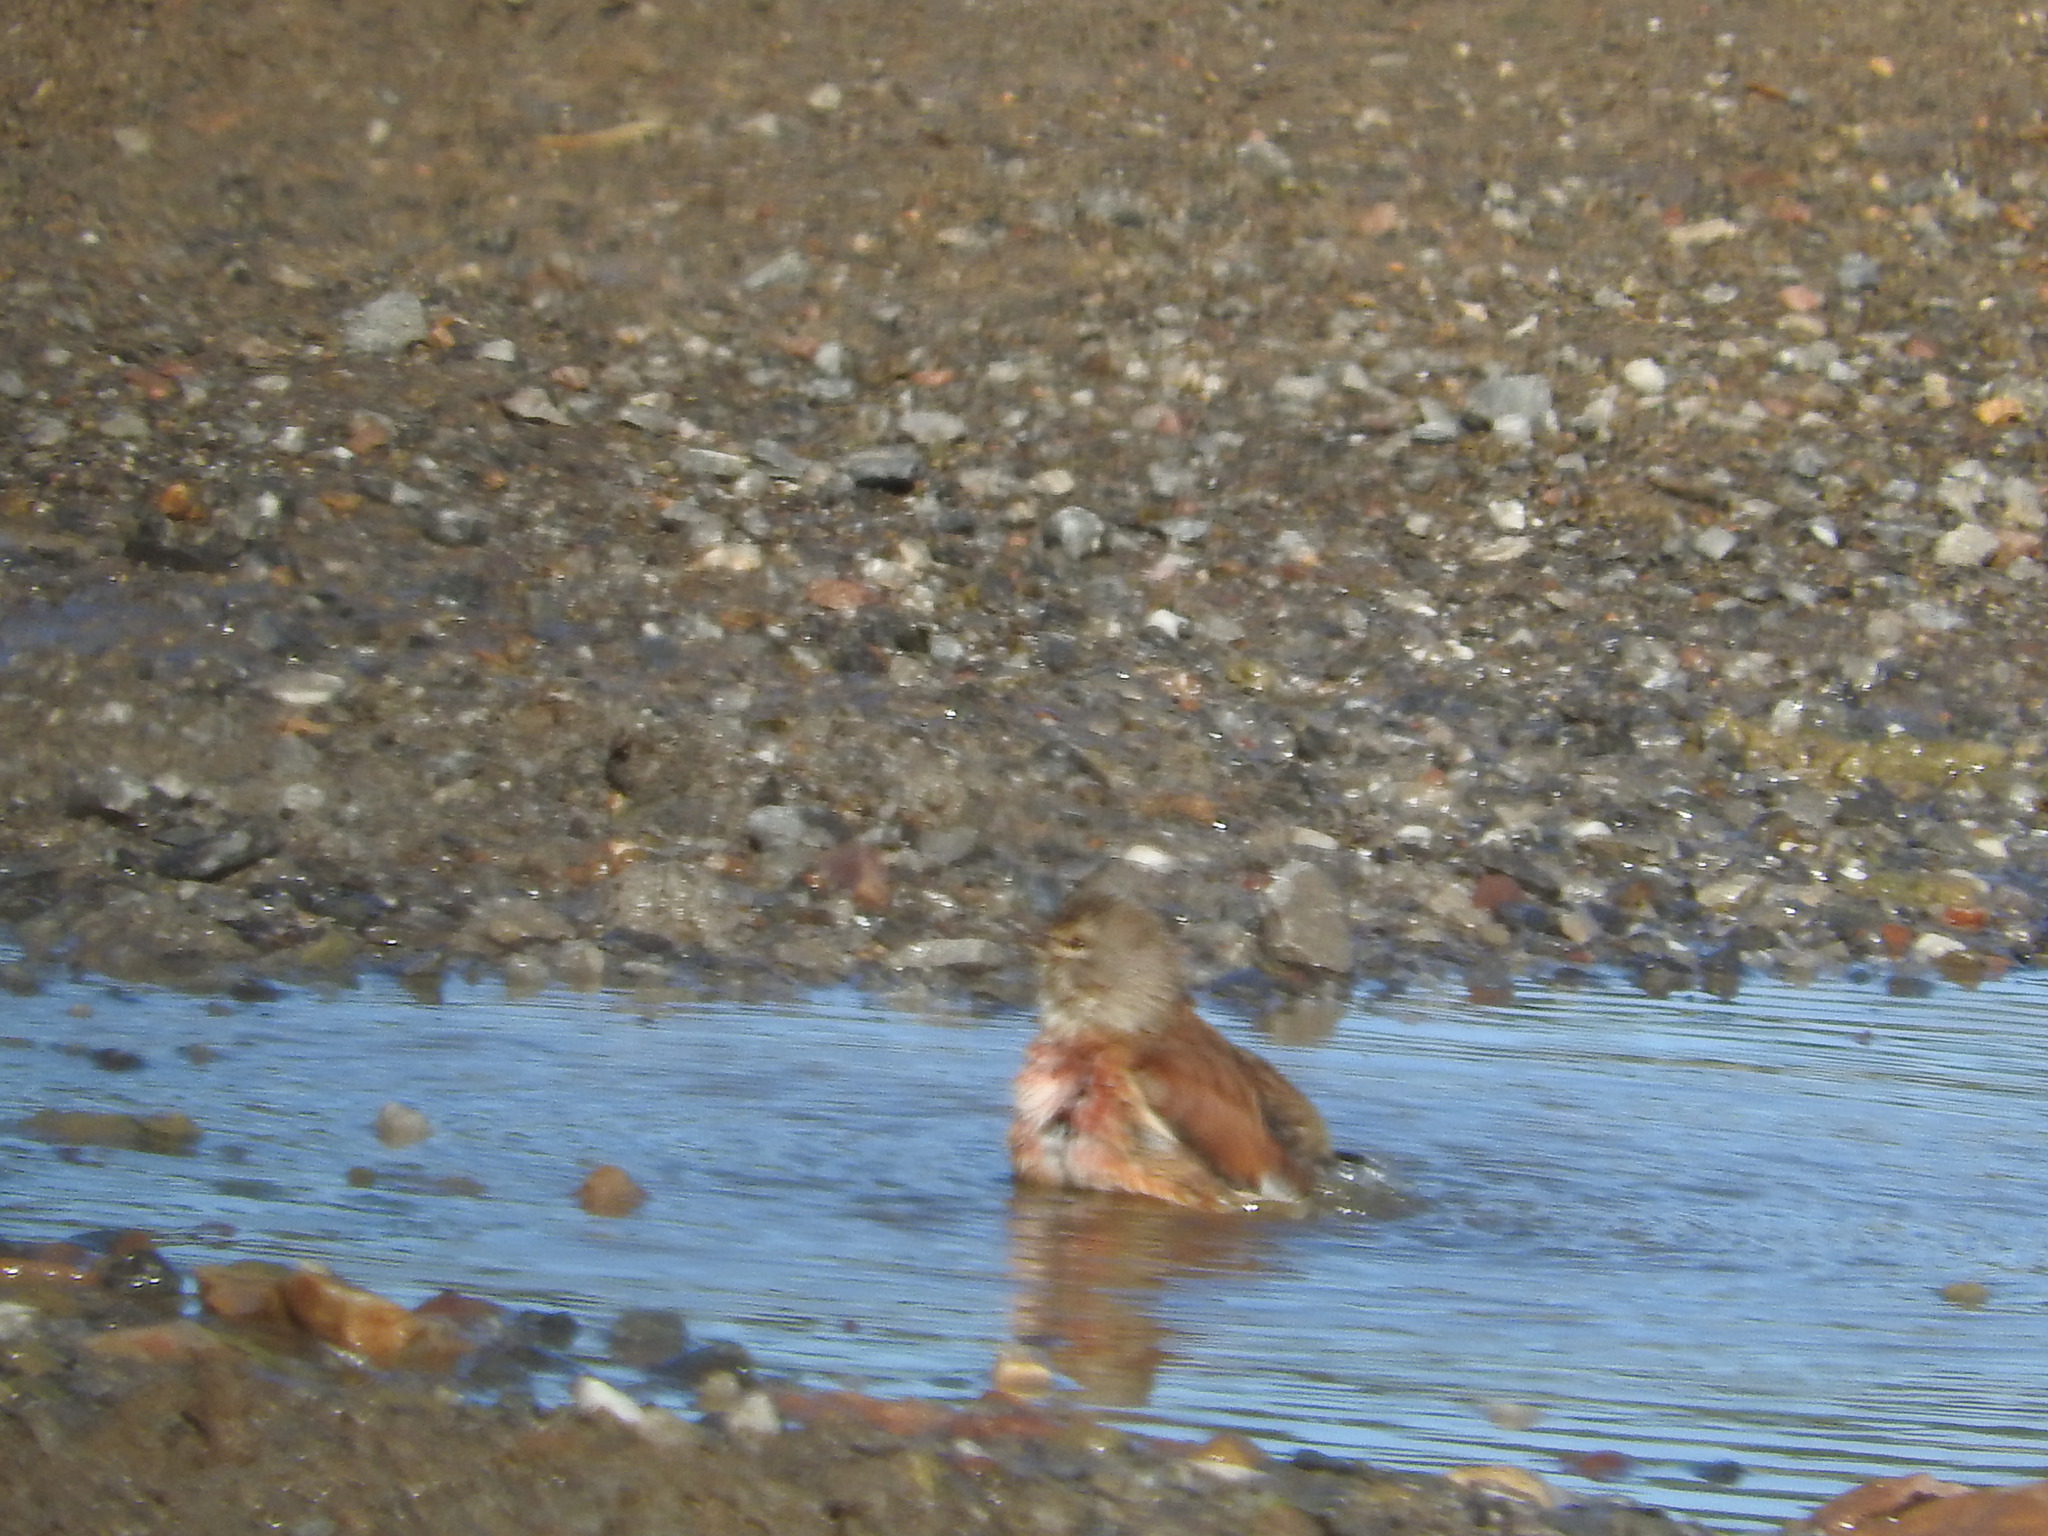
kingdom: Animalia
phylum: Chordata
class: Aves
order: Passeriformes
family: Fringillidae
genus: Linaria
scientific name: Linaria cannabina
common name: Common linnet
